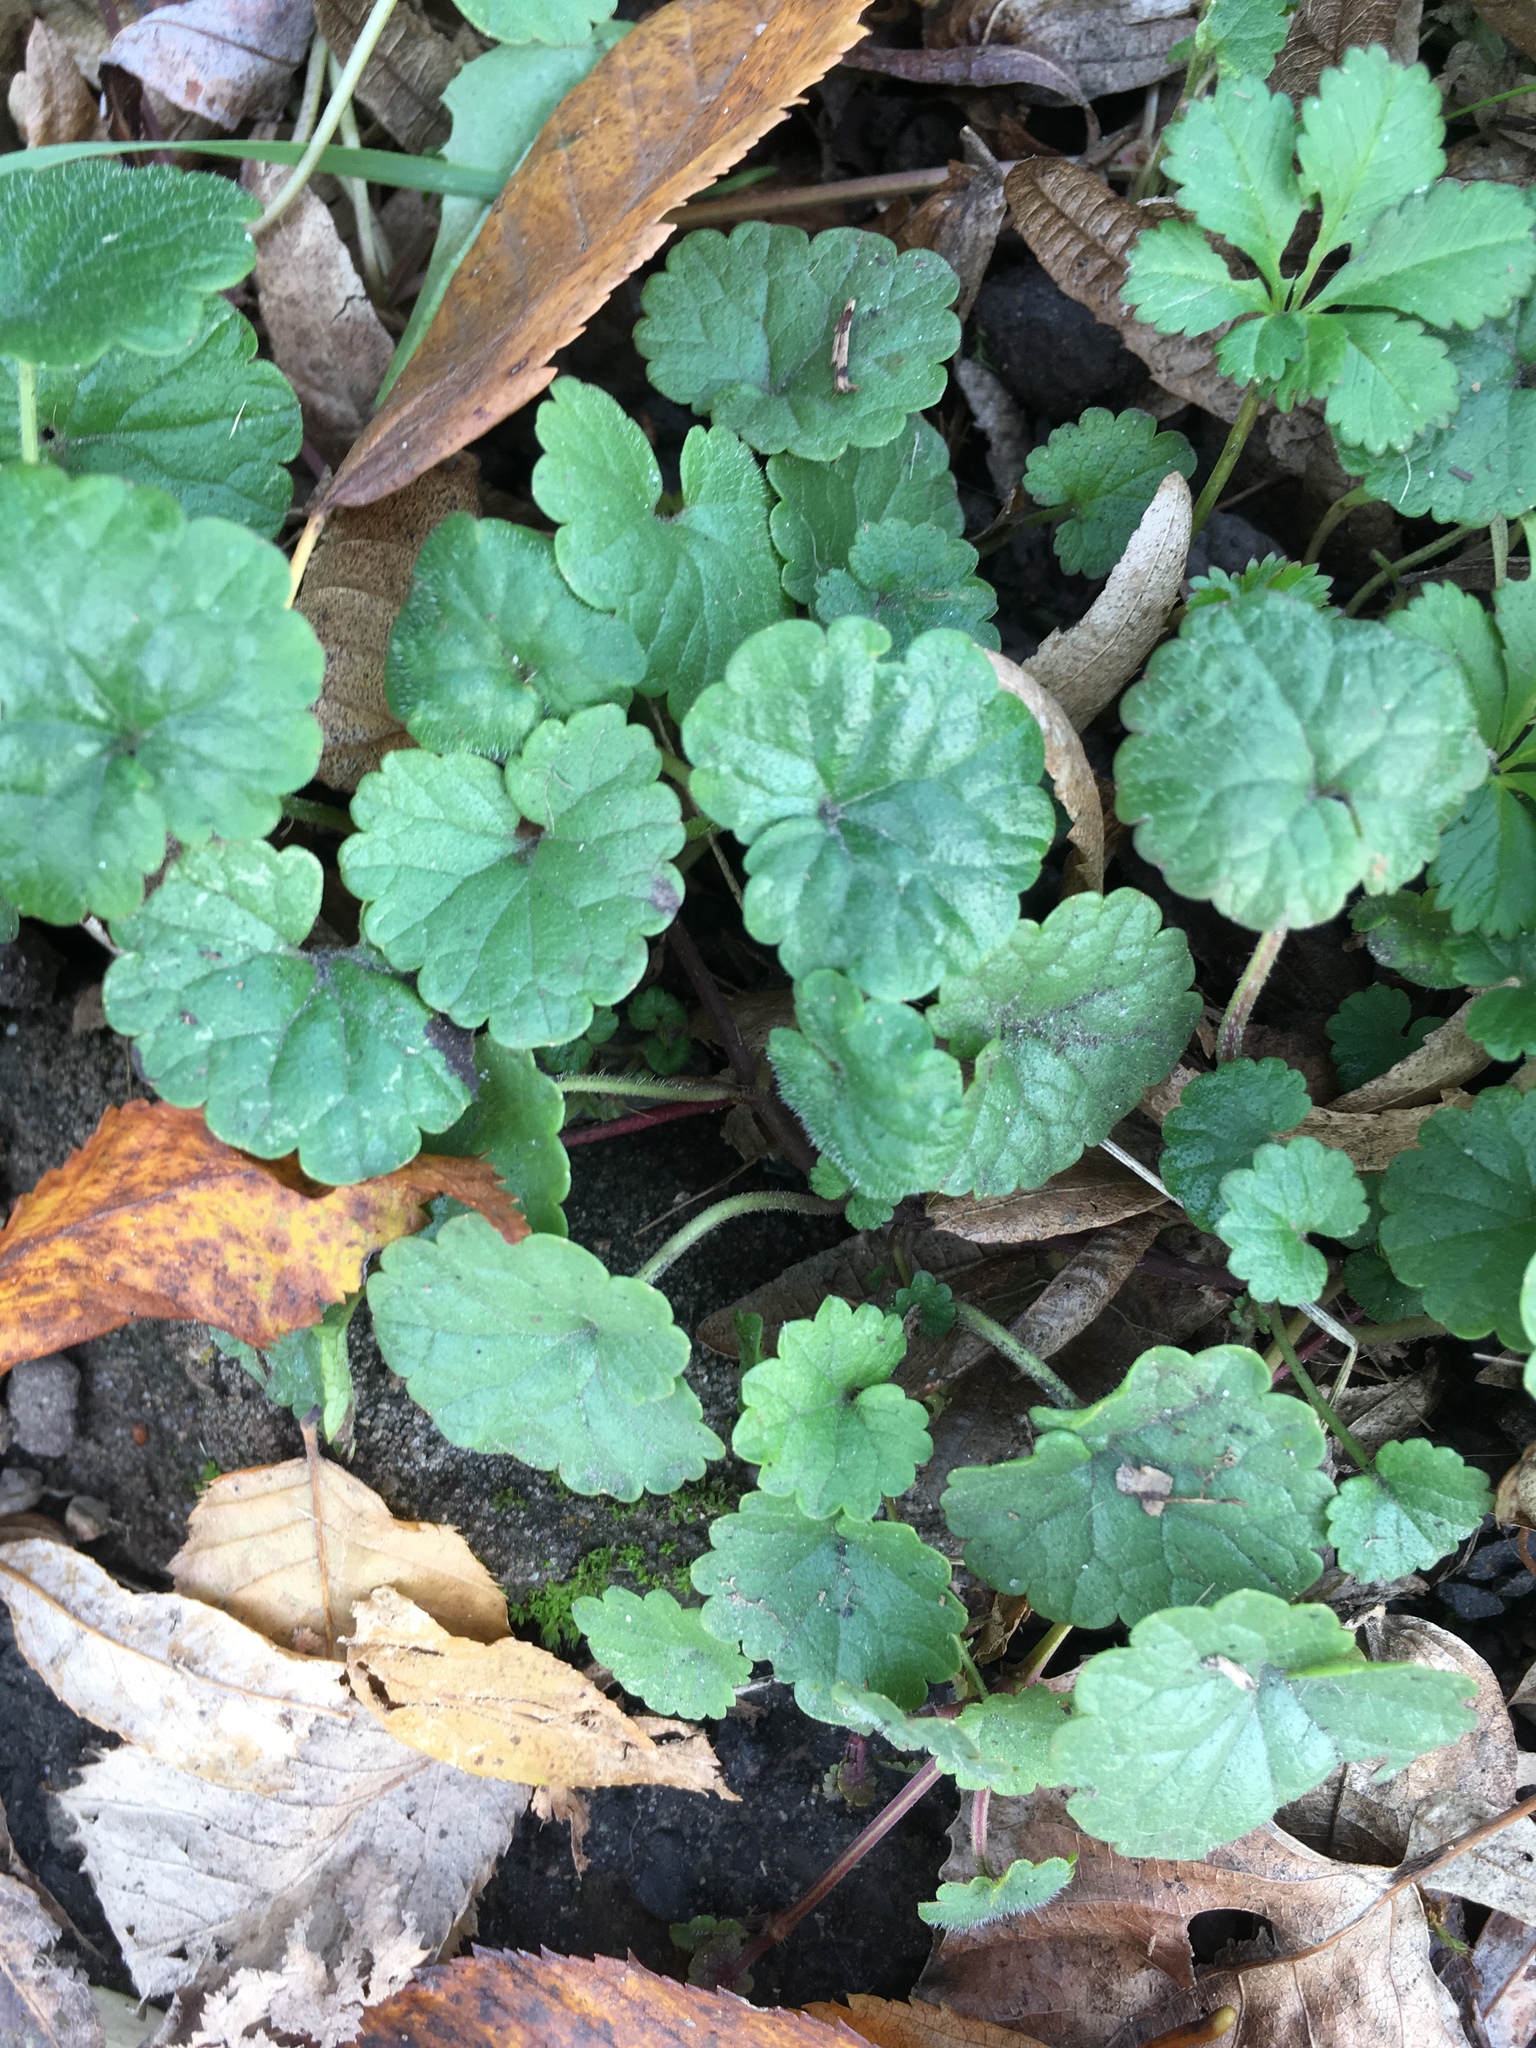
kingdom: Plantae
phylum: Tracheophyta
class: Magnoliopsida
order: Lamiales
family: Lamiaceae
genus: Glechoma
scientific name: Glechoma hederacea
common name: Ground ivy
